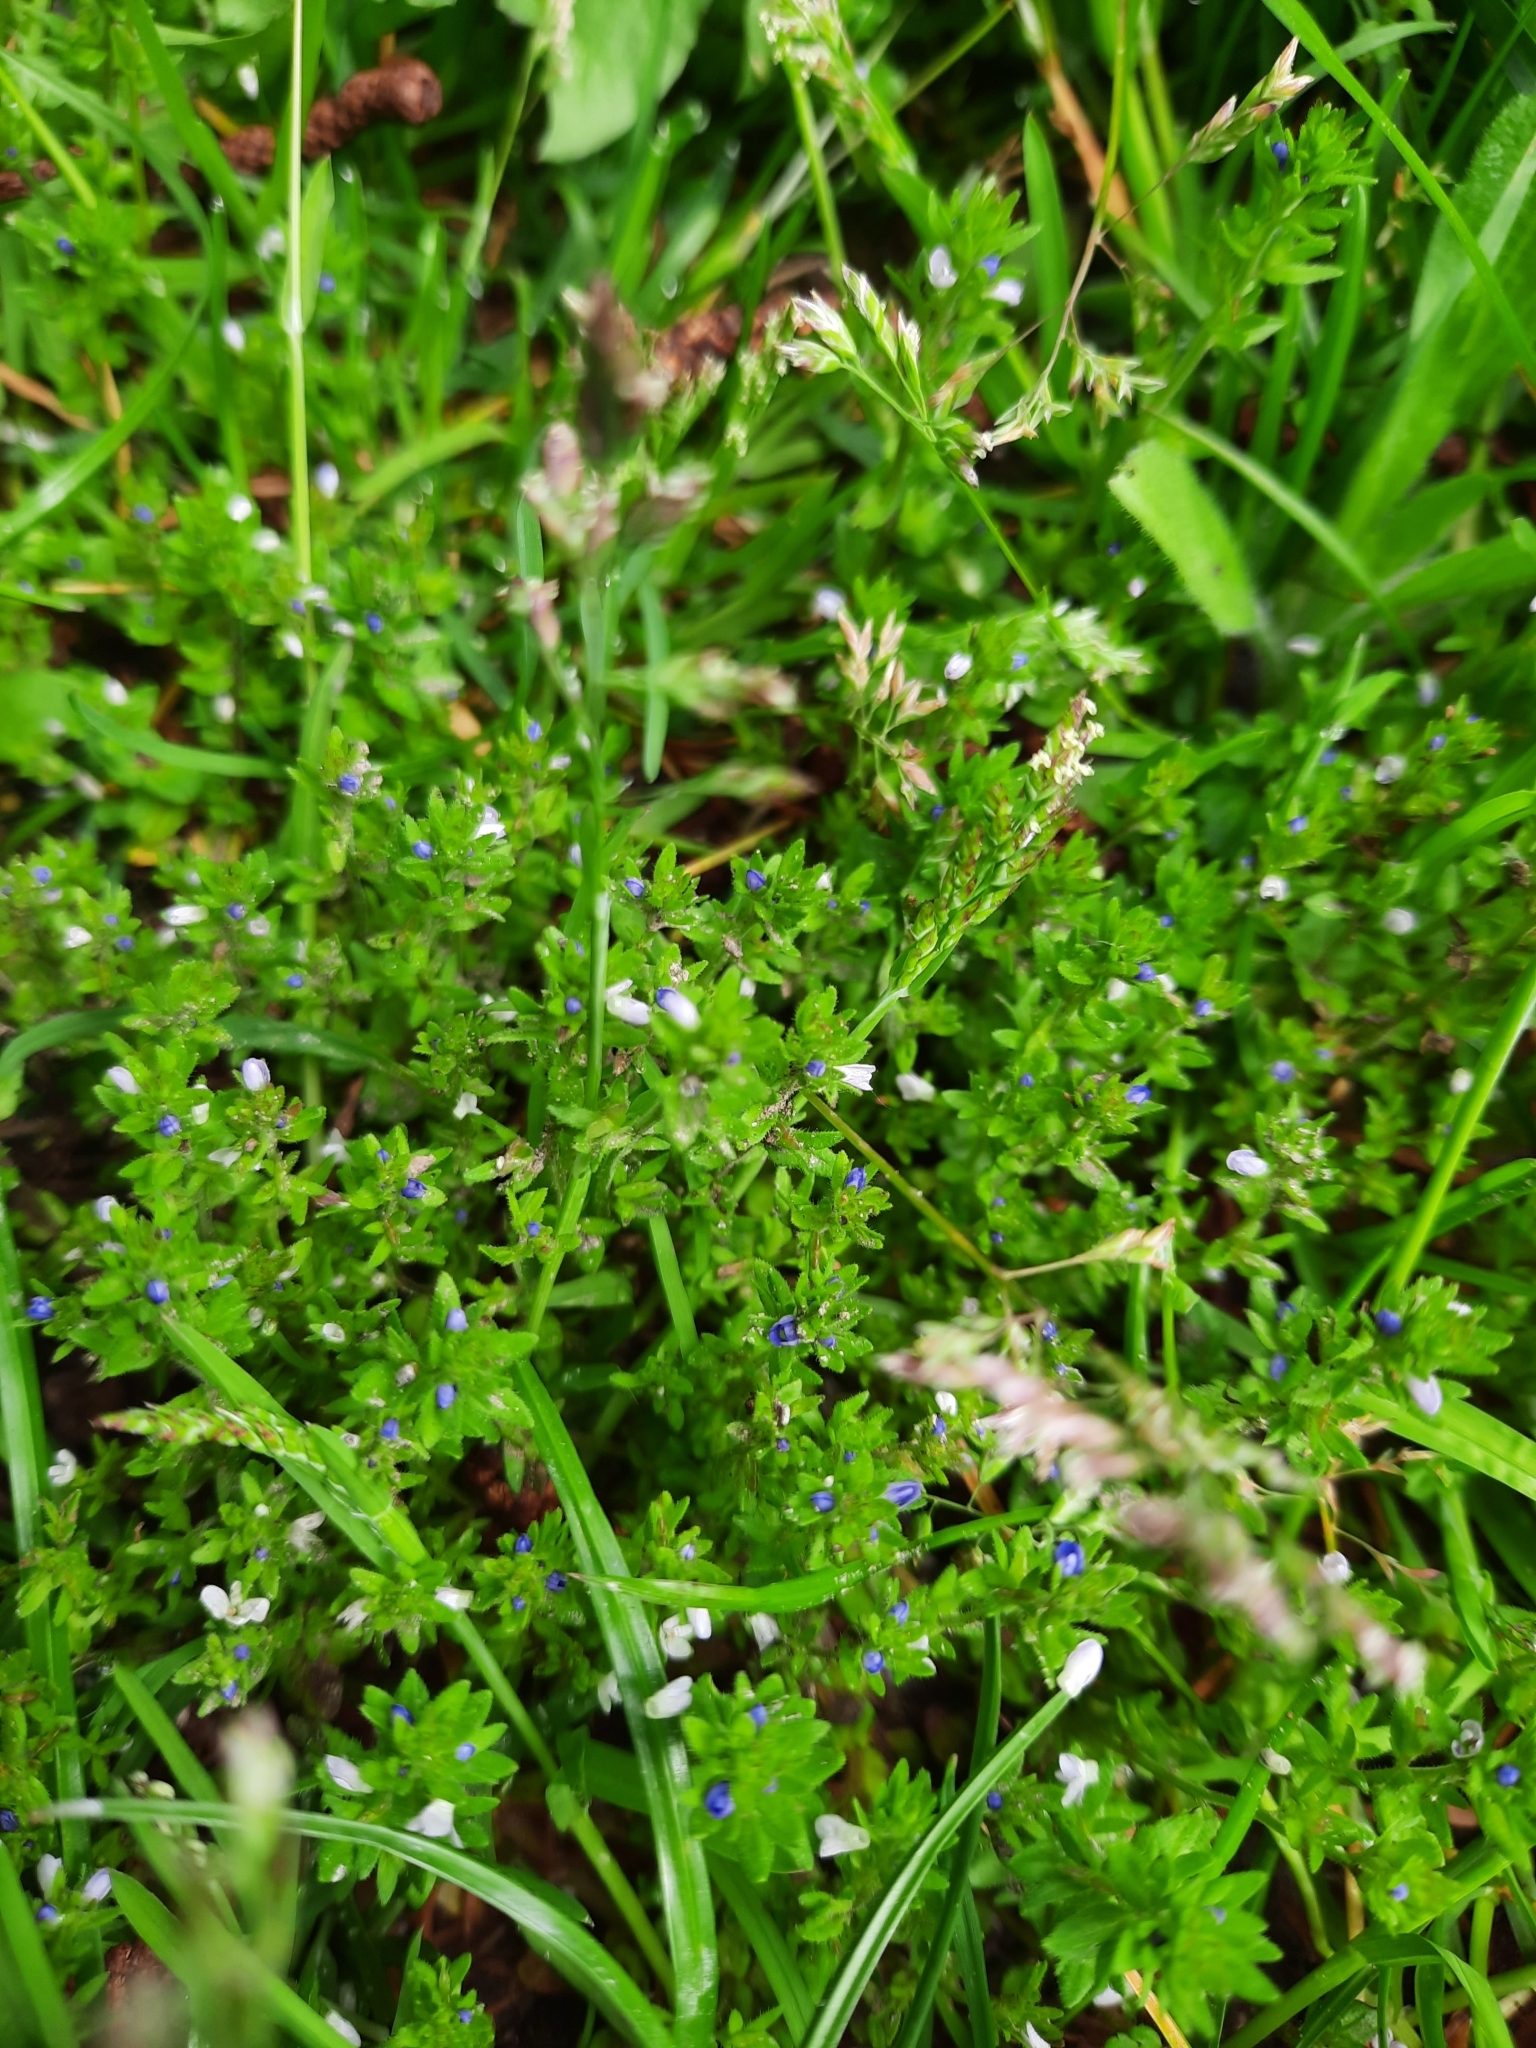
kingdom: Plantae
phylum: Tracheophyta
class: Magnoliopsida
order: Lamiales
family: Plantaginaceae
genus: Veronica
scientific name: Veronica arvensis
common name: Corn speedwell
